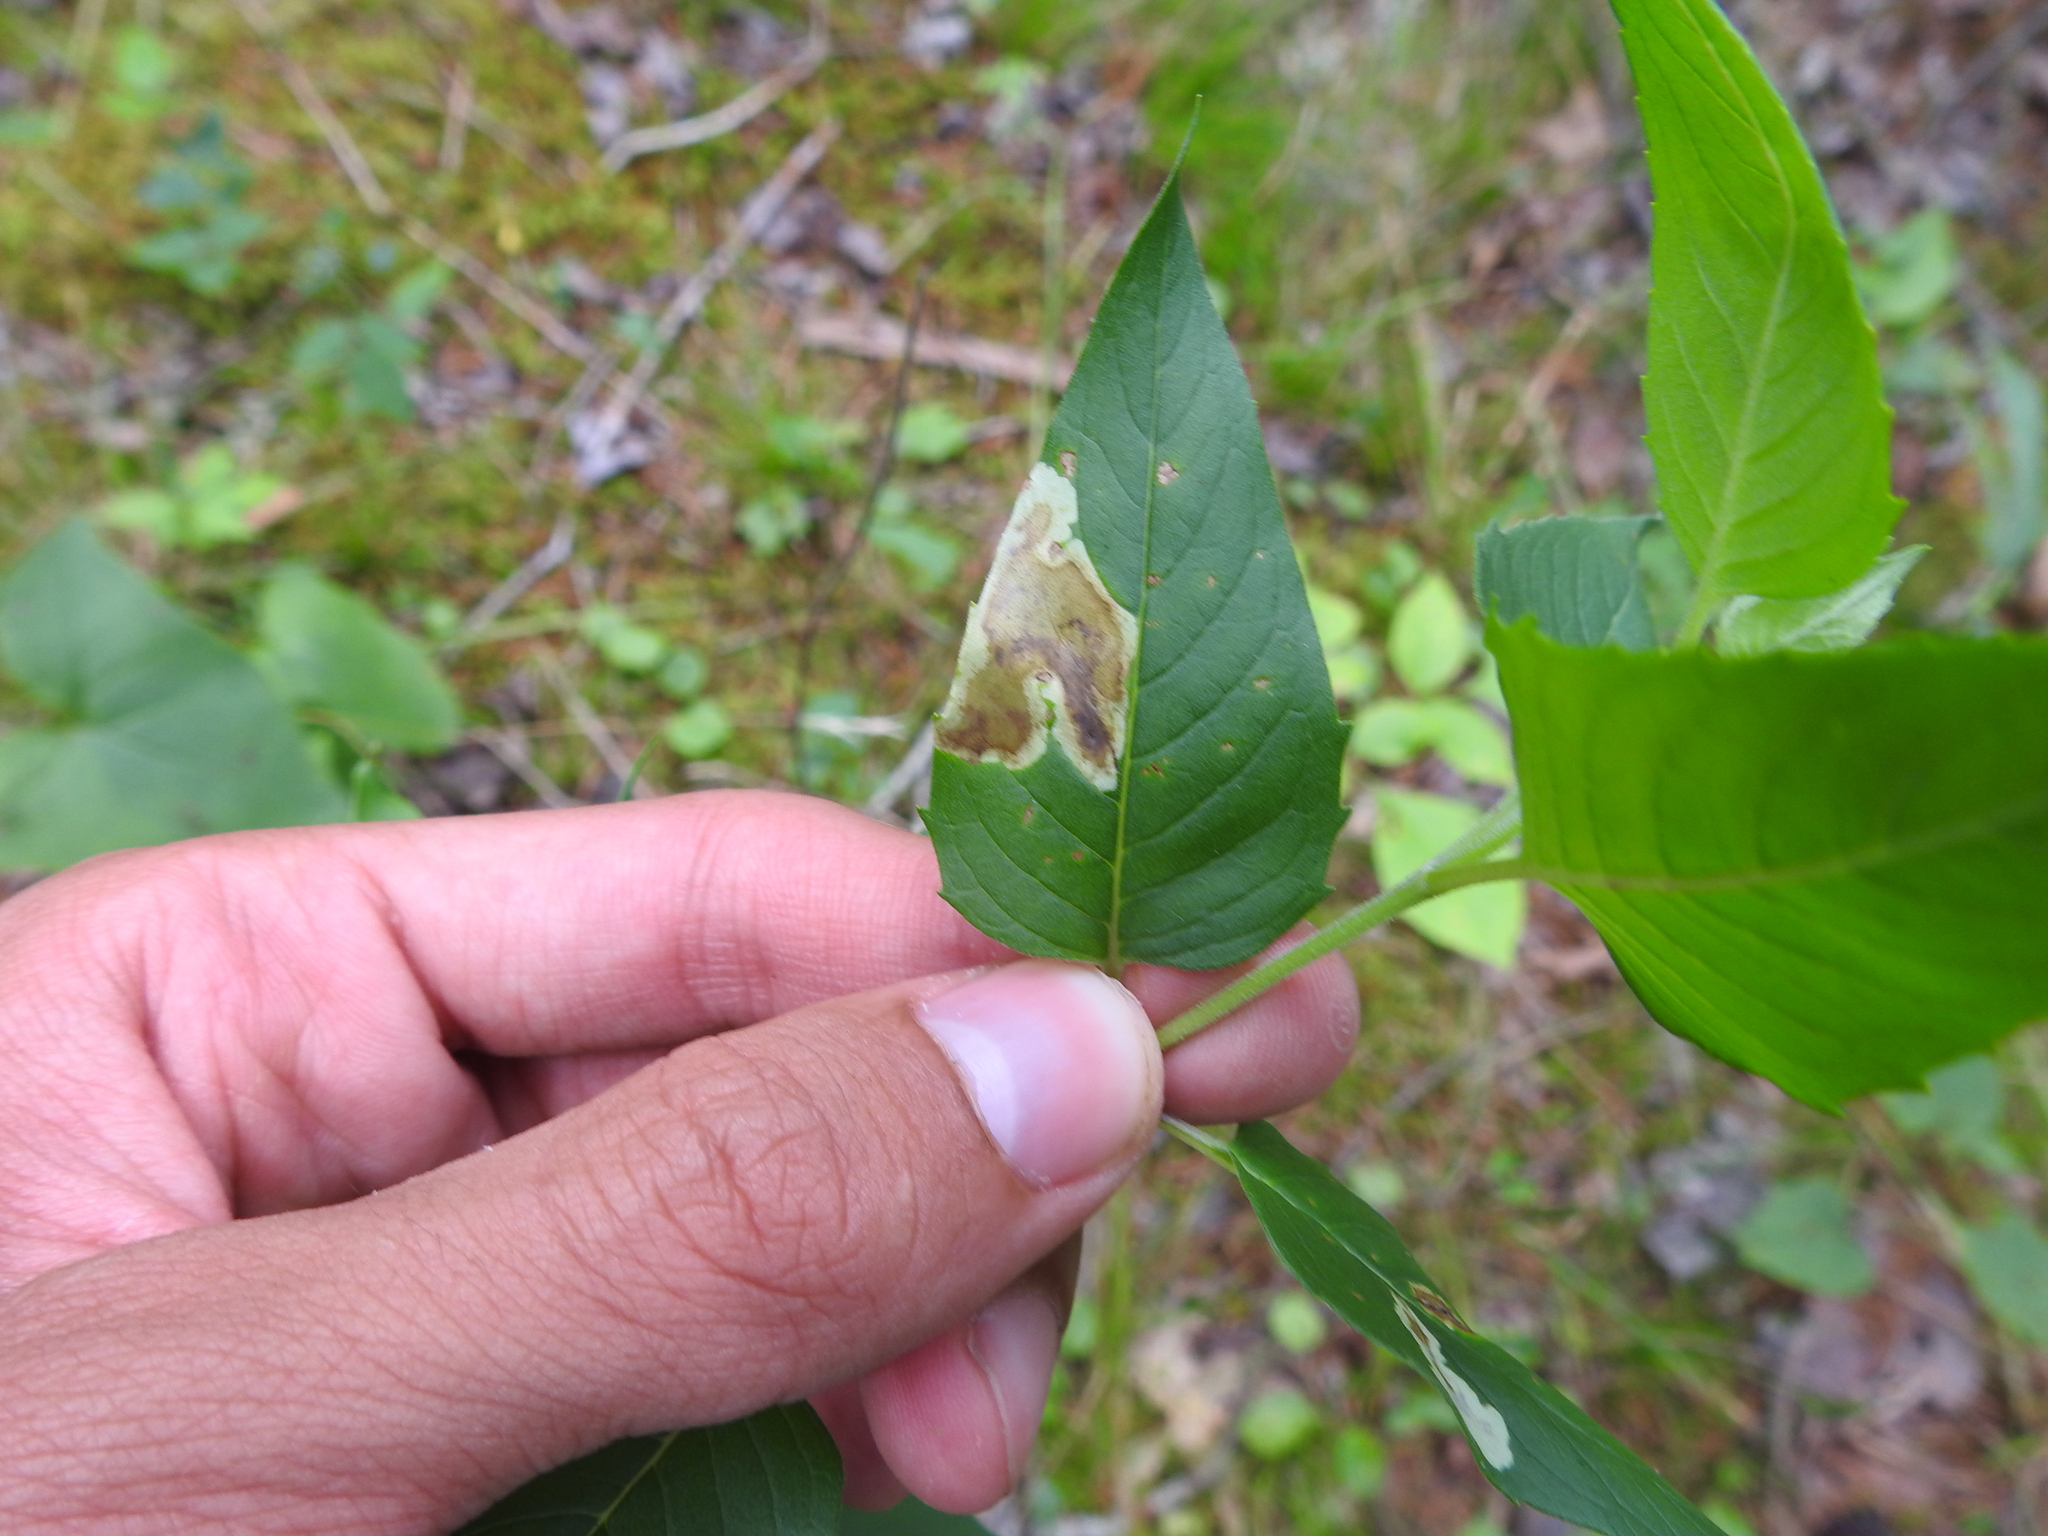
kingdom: Animalia
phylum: Arthropoda
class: Insecta
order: Diptera
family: Agromyzidae
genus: Calycomyza
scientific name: Calycomyza menthae
